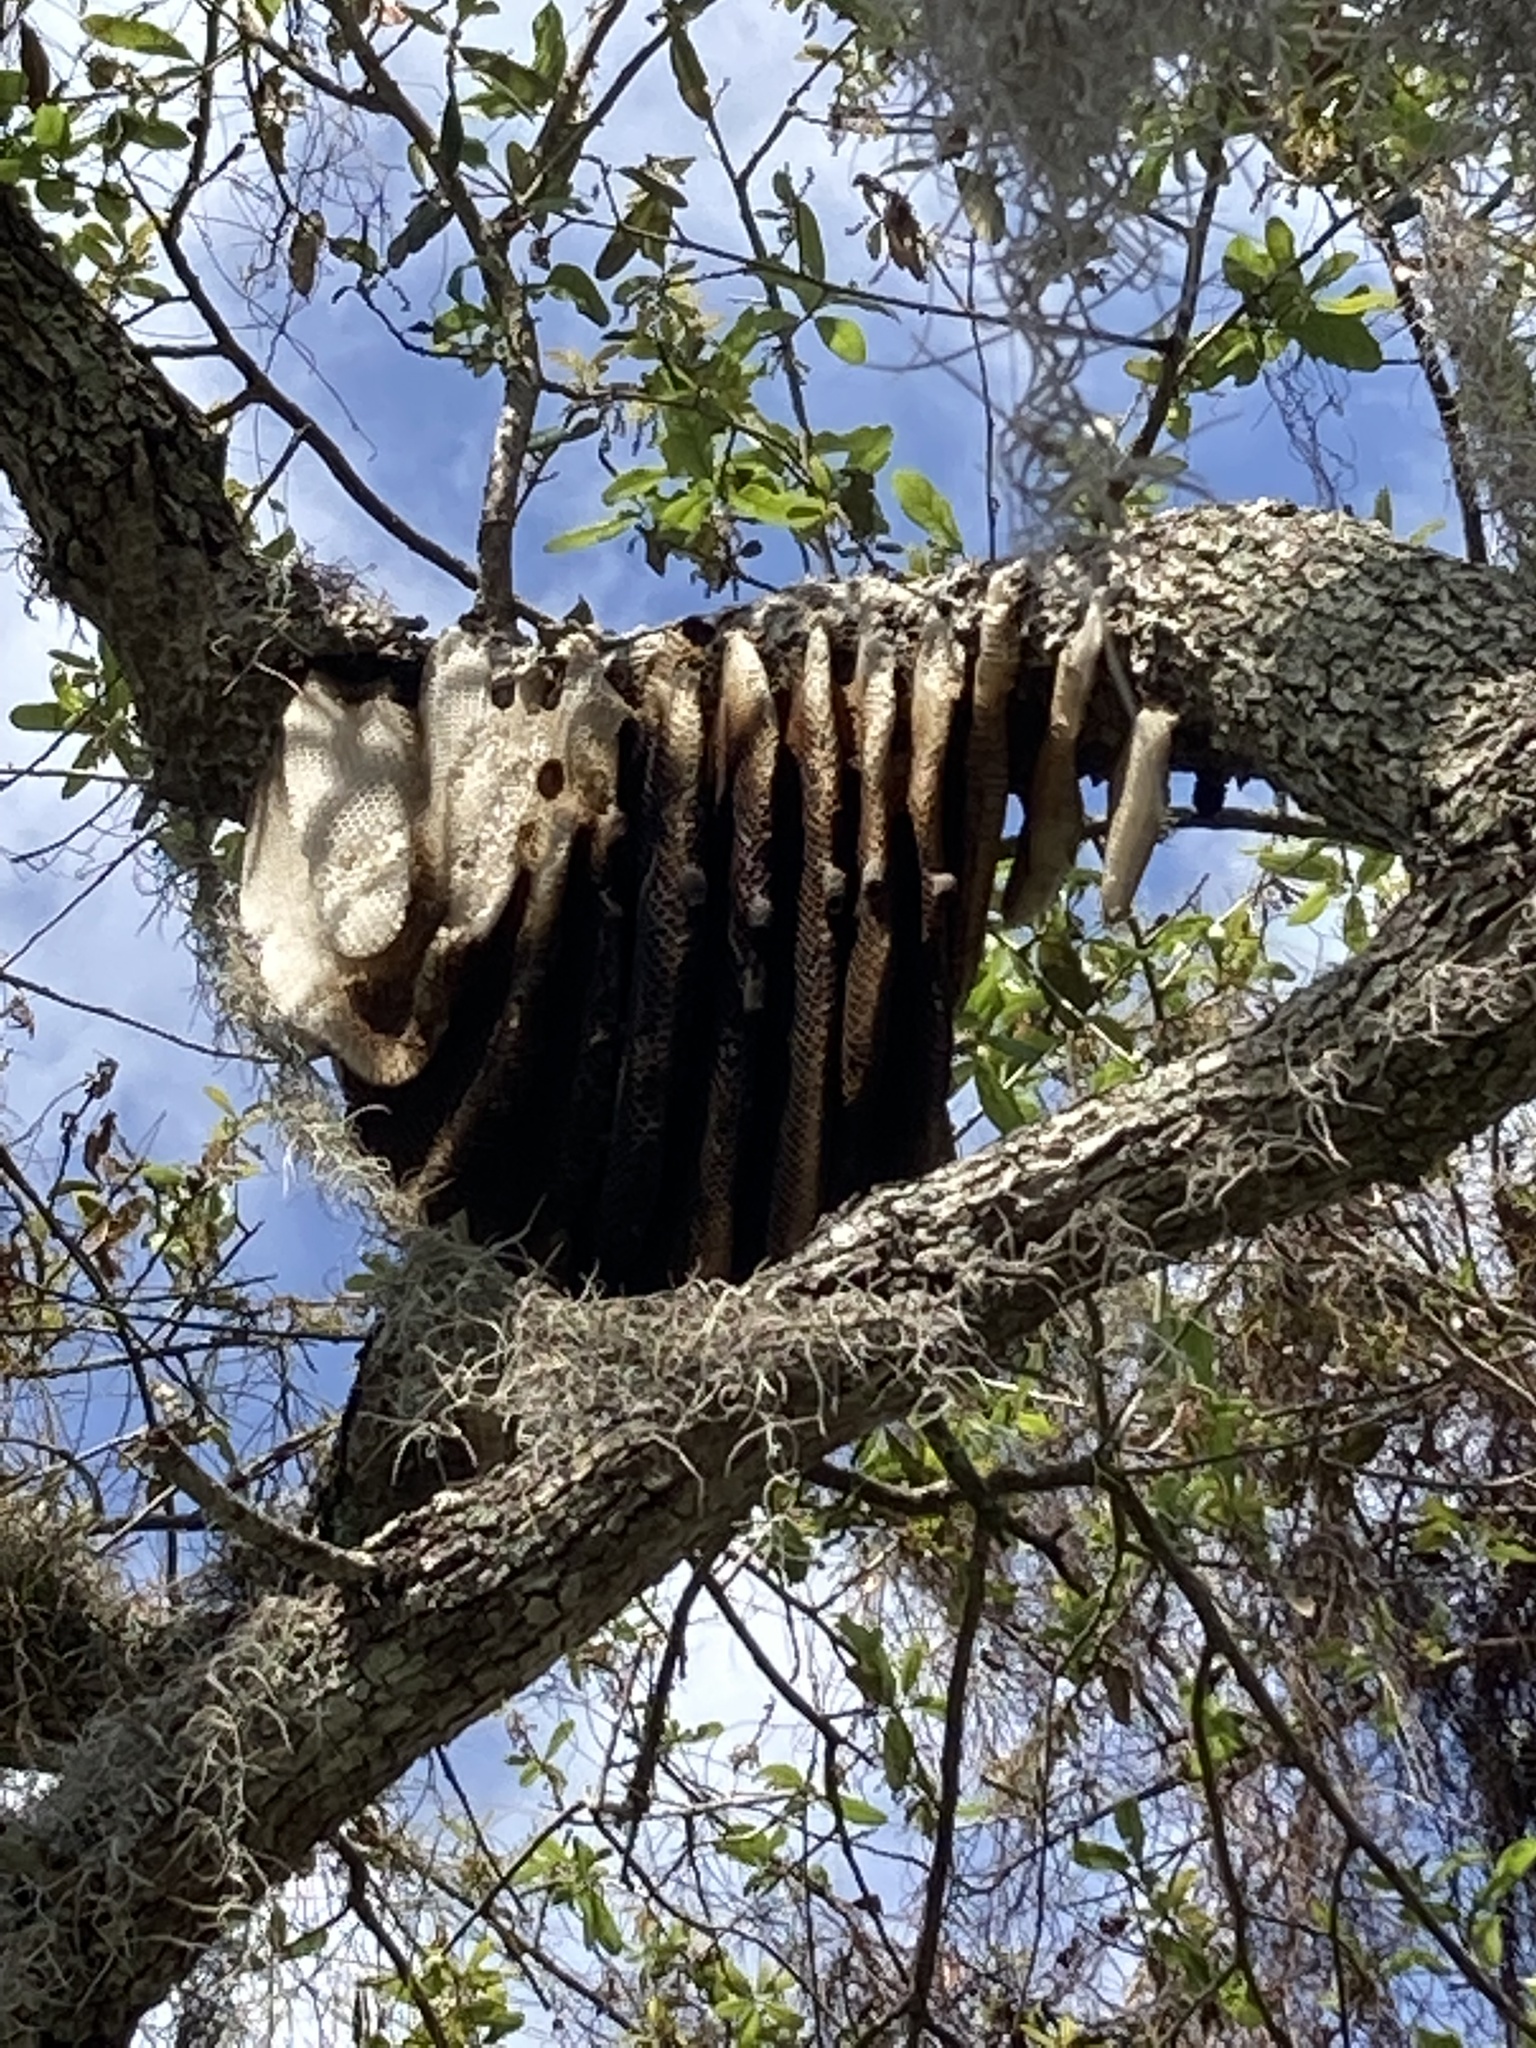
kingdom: Animalia
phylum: Arthropoda
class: Insecta
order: Hymenoptera
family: Apidae
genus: Apis
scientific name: Apis mellifera
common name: Honey bee
